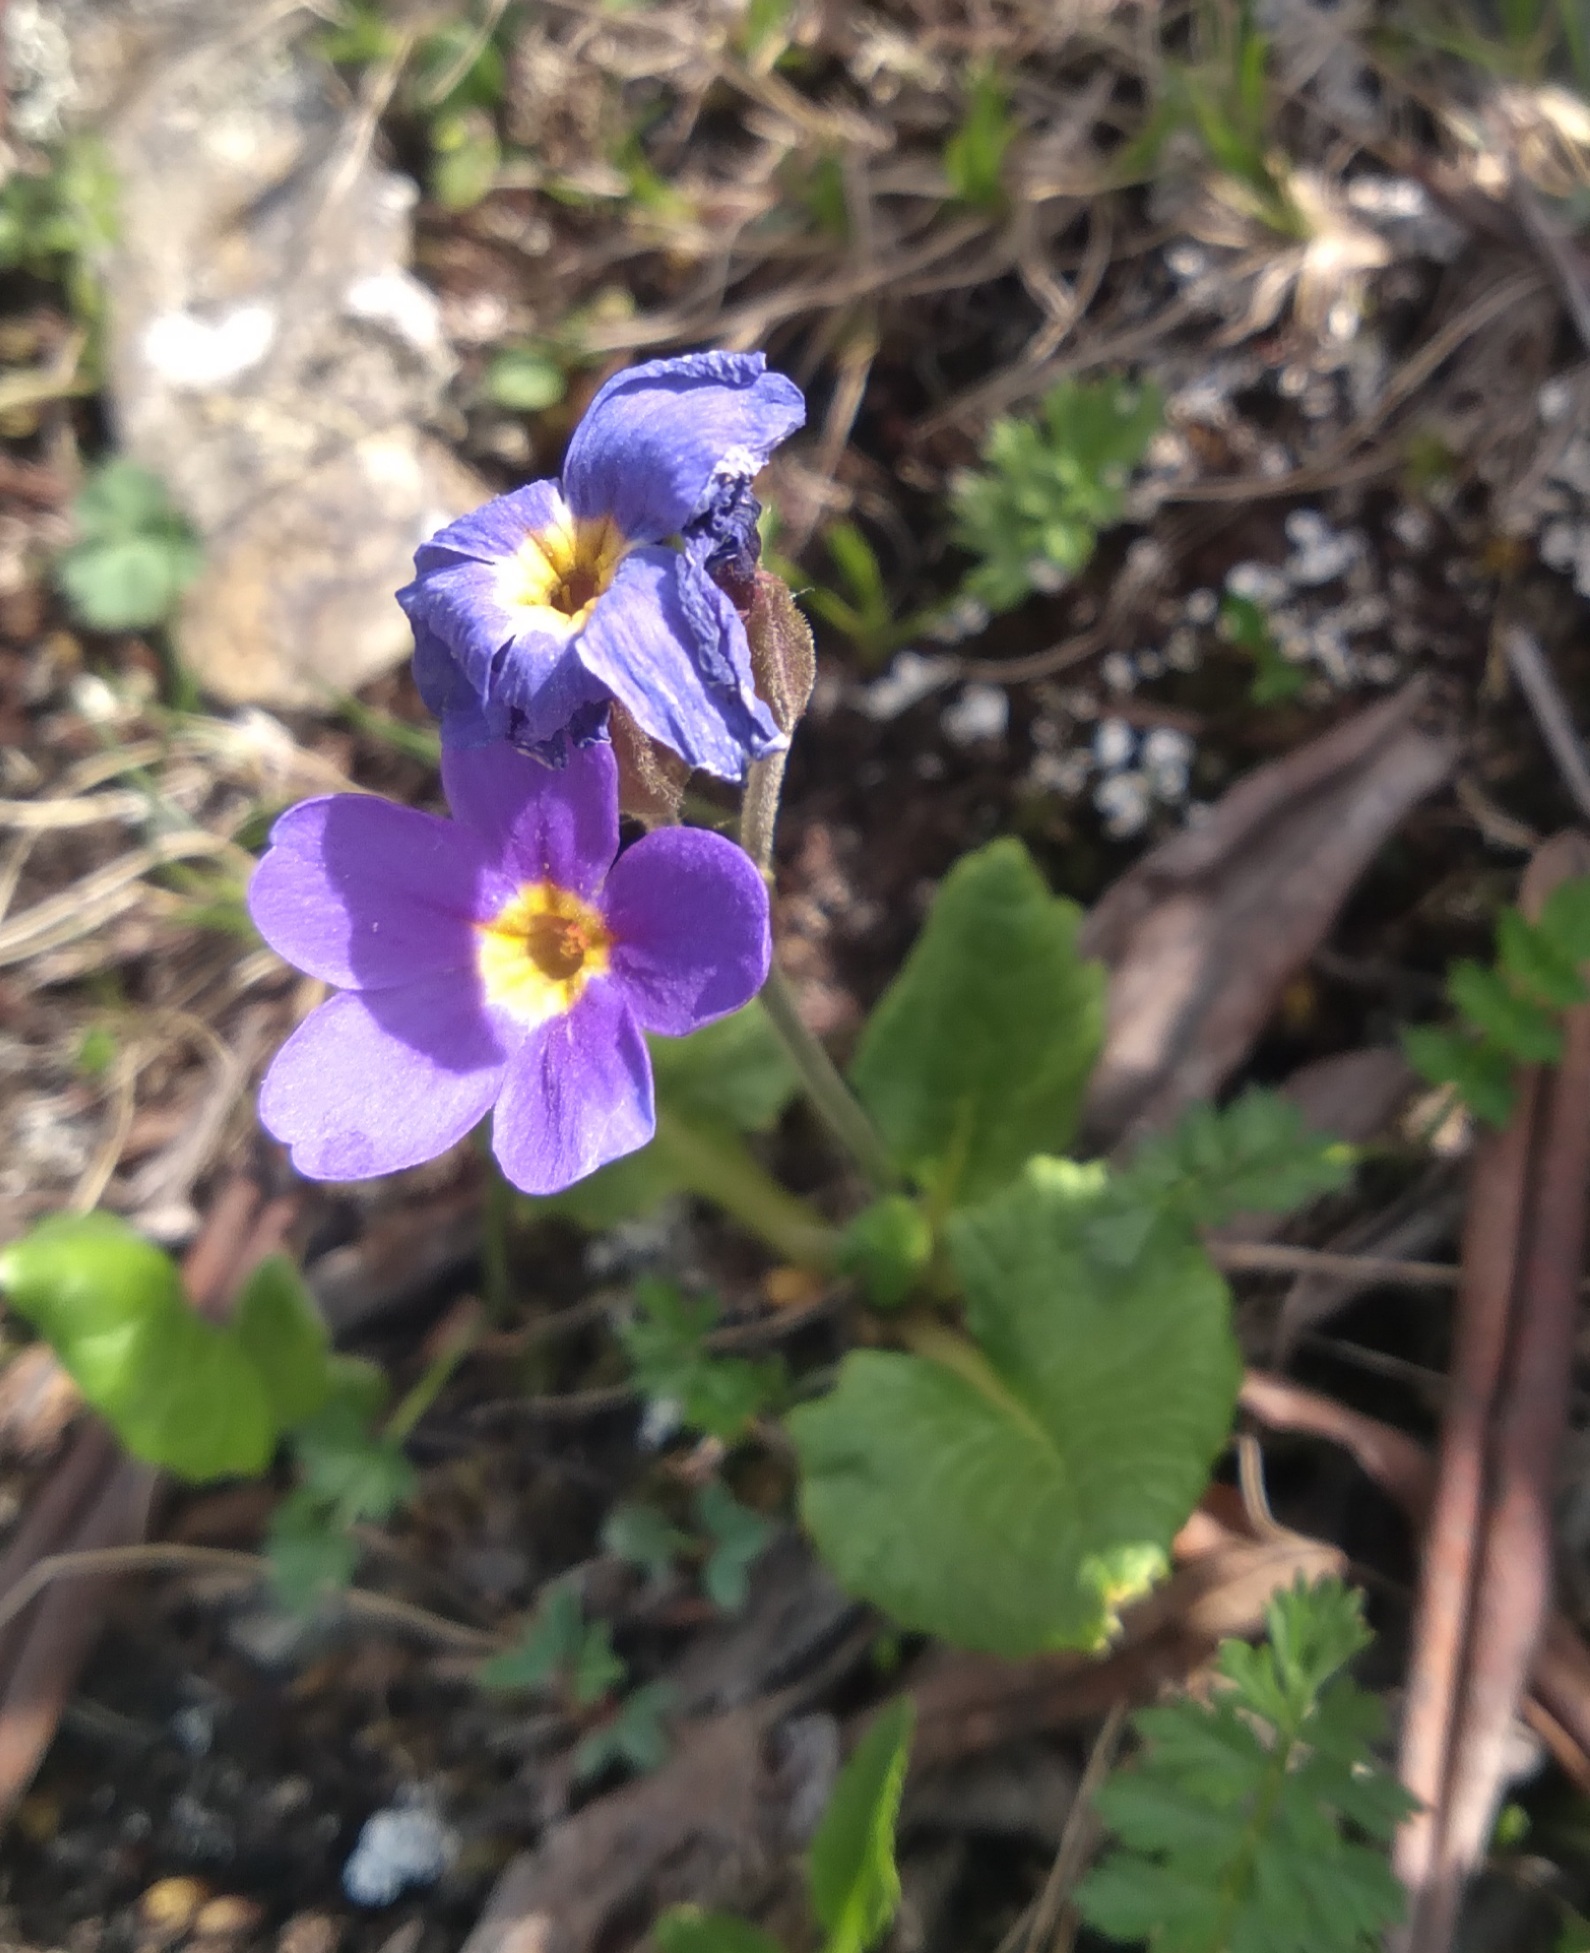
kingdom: Plantae
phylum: Tracheophyta
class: Magnoliopsida
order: Ericales
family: Primulaceae
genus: Primula
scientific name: Primula amoena
